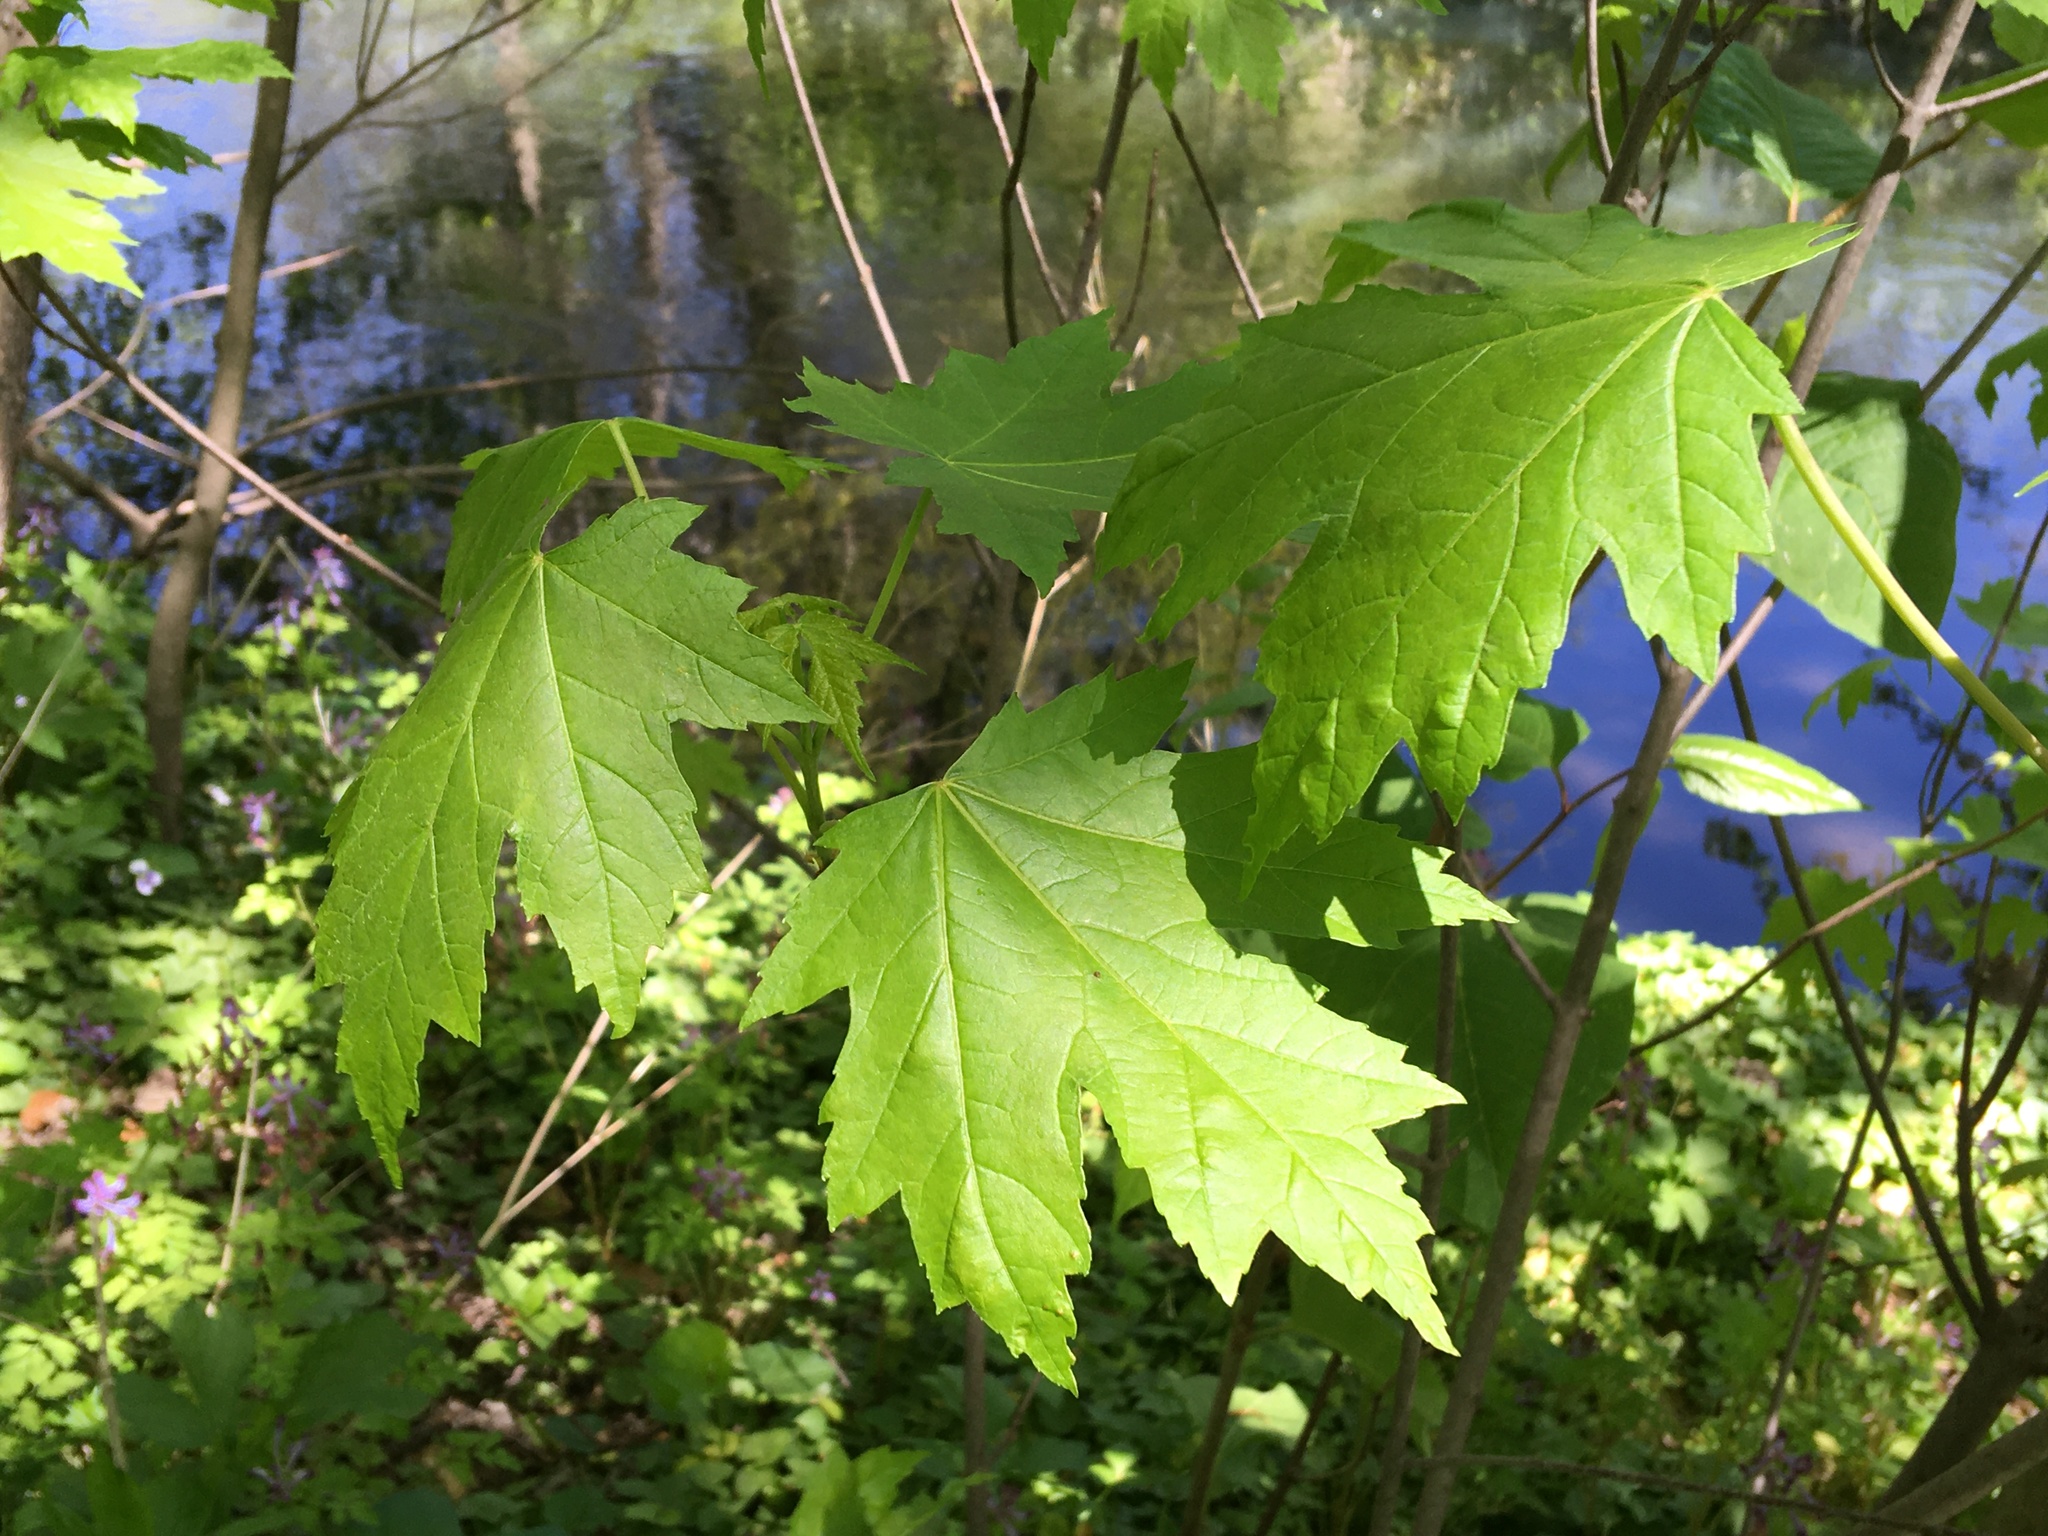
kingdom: Plantae
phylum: Tracheophyta
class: Magnoliopsida
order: Sapindales
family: Sapindaceae
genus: Acer
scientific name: Acer saccharinum
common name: Silver maple
